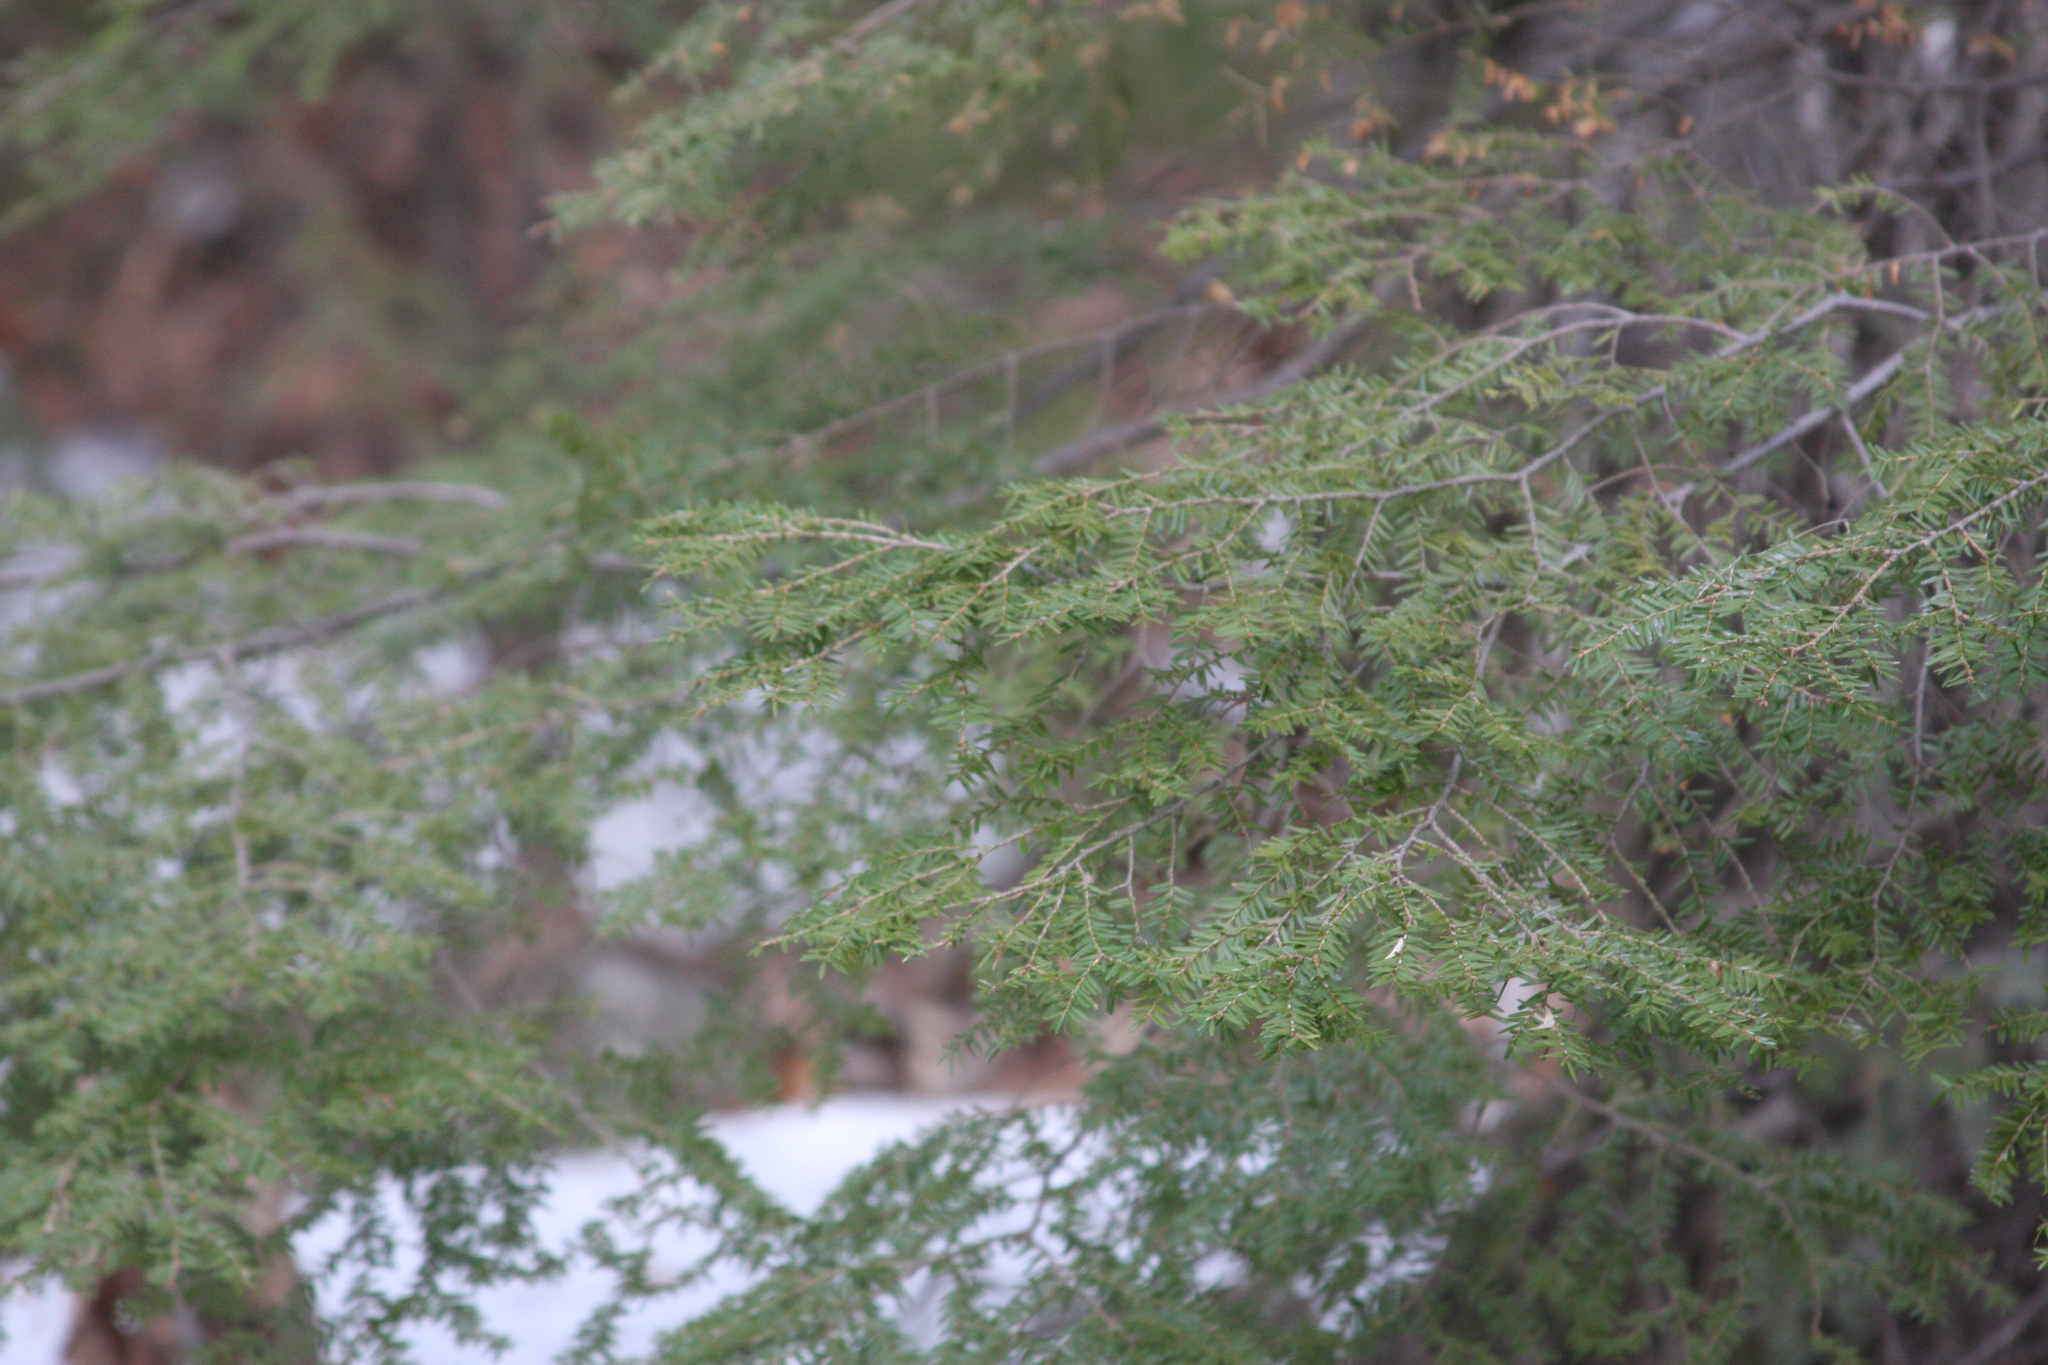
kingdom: Plantae
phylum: Tracheophyta
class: Pinopsida
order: Pinales
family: Pinaceae
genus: Tsuga
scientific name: Tsuga canadensis
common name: Eastern hemlock
